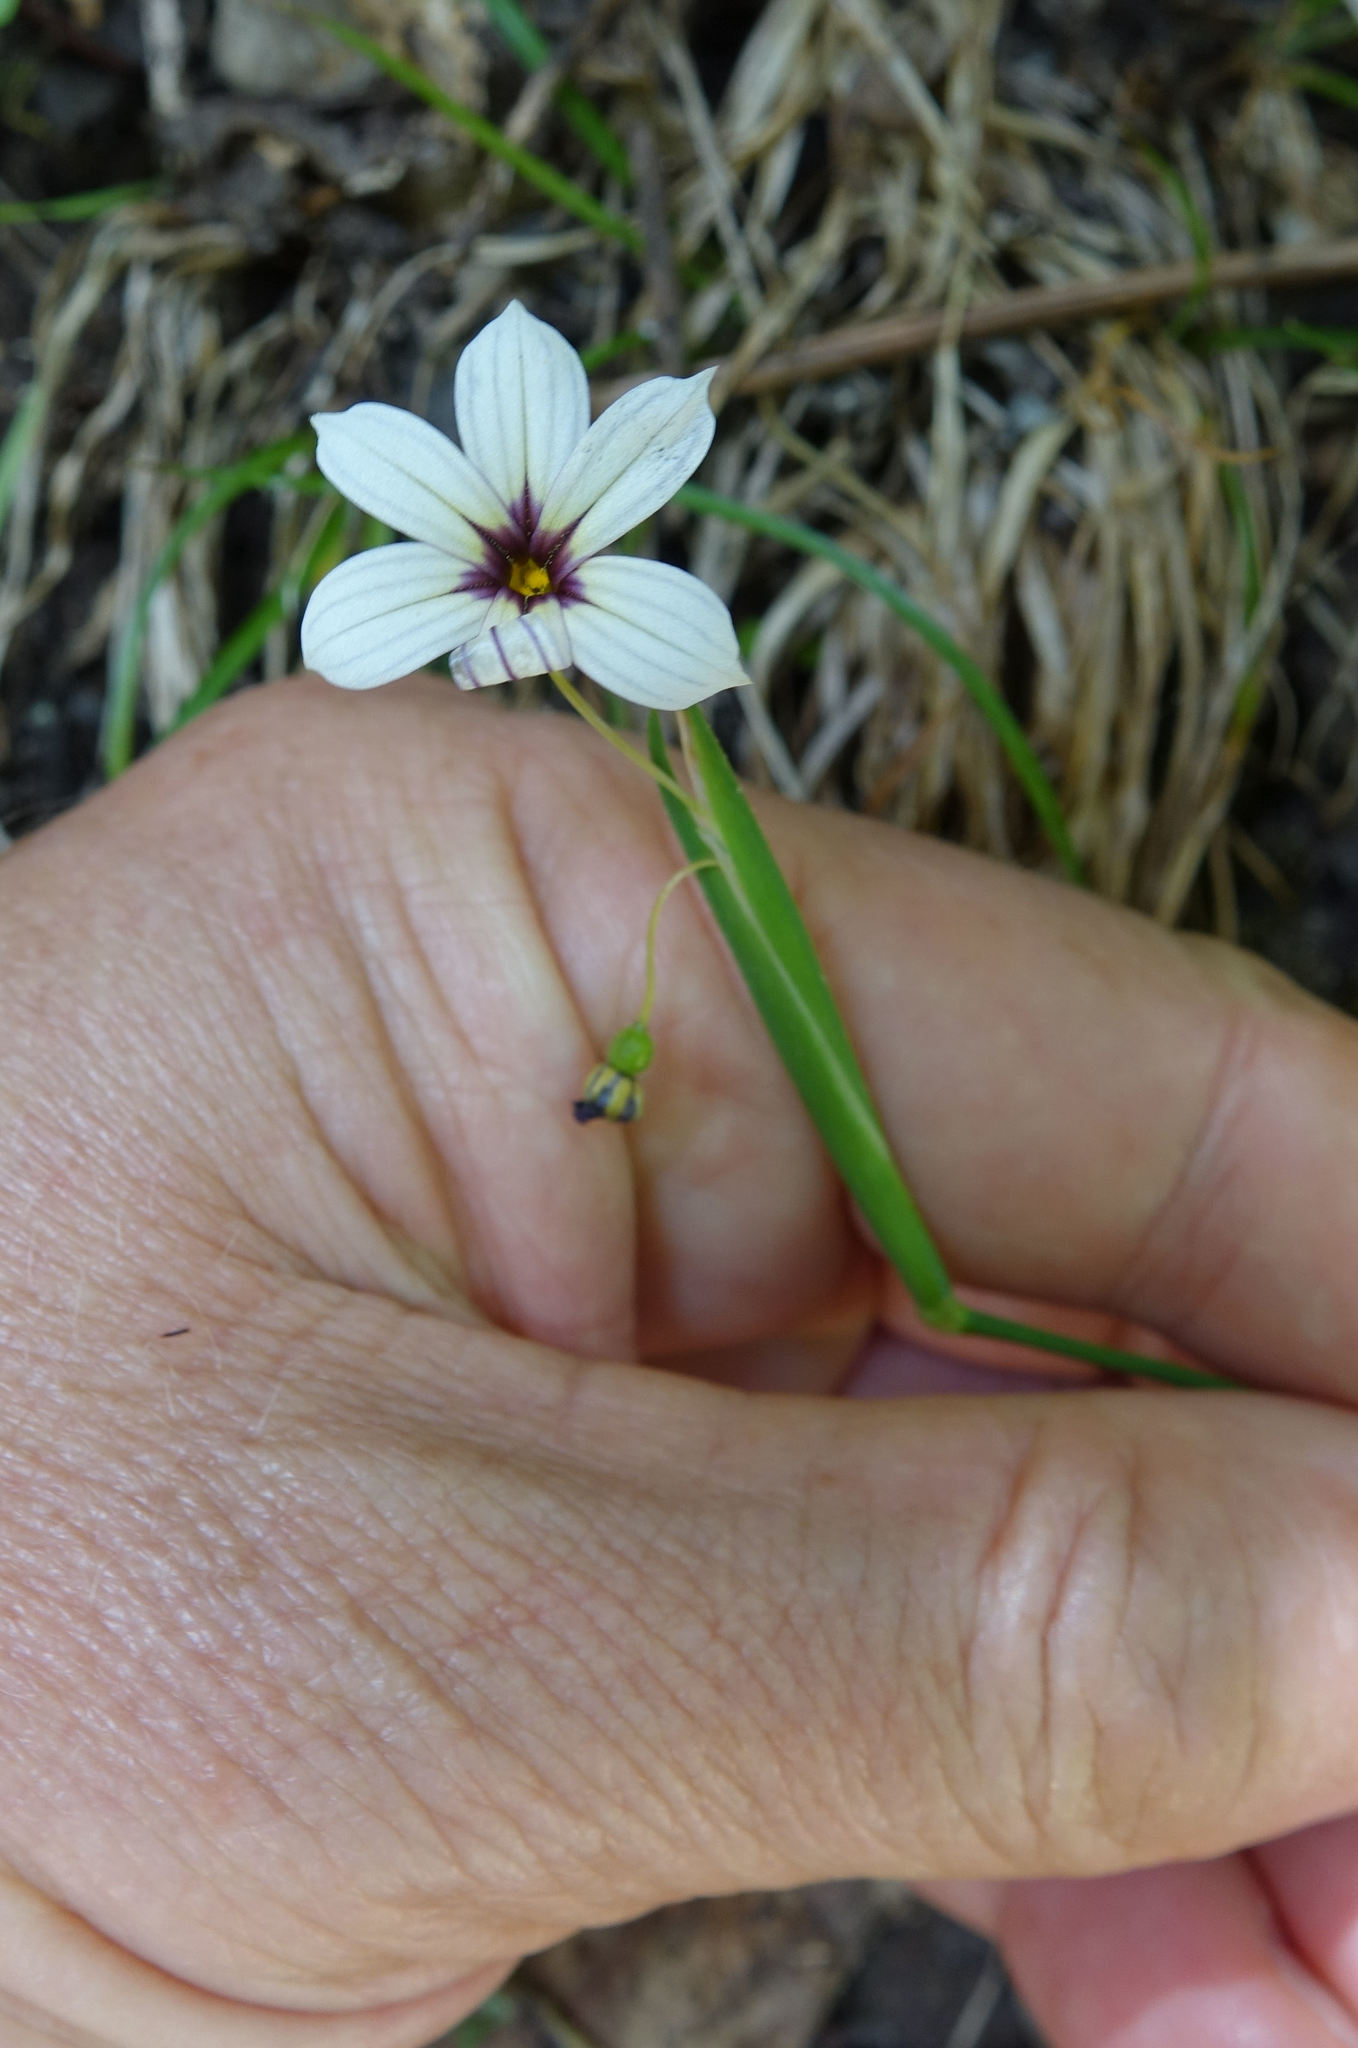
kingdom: Plantae
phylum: Tracheophyta
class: Liliopsida
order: Asparagales
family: Iridaceae
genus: Sisyrinchium
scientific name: Sisyrinchium micranthum
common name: Bermuda pigroot
